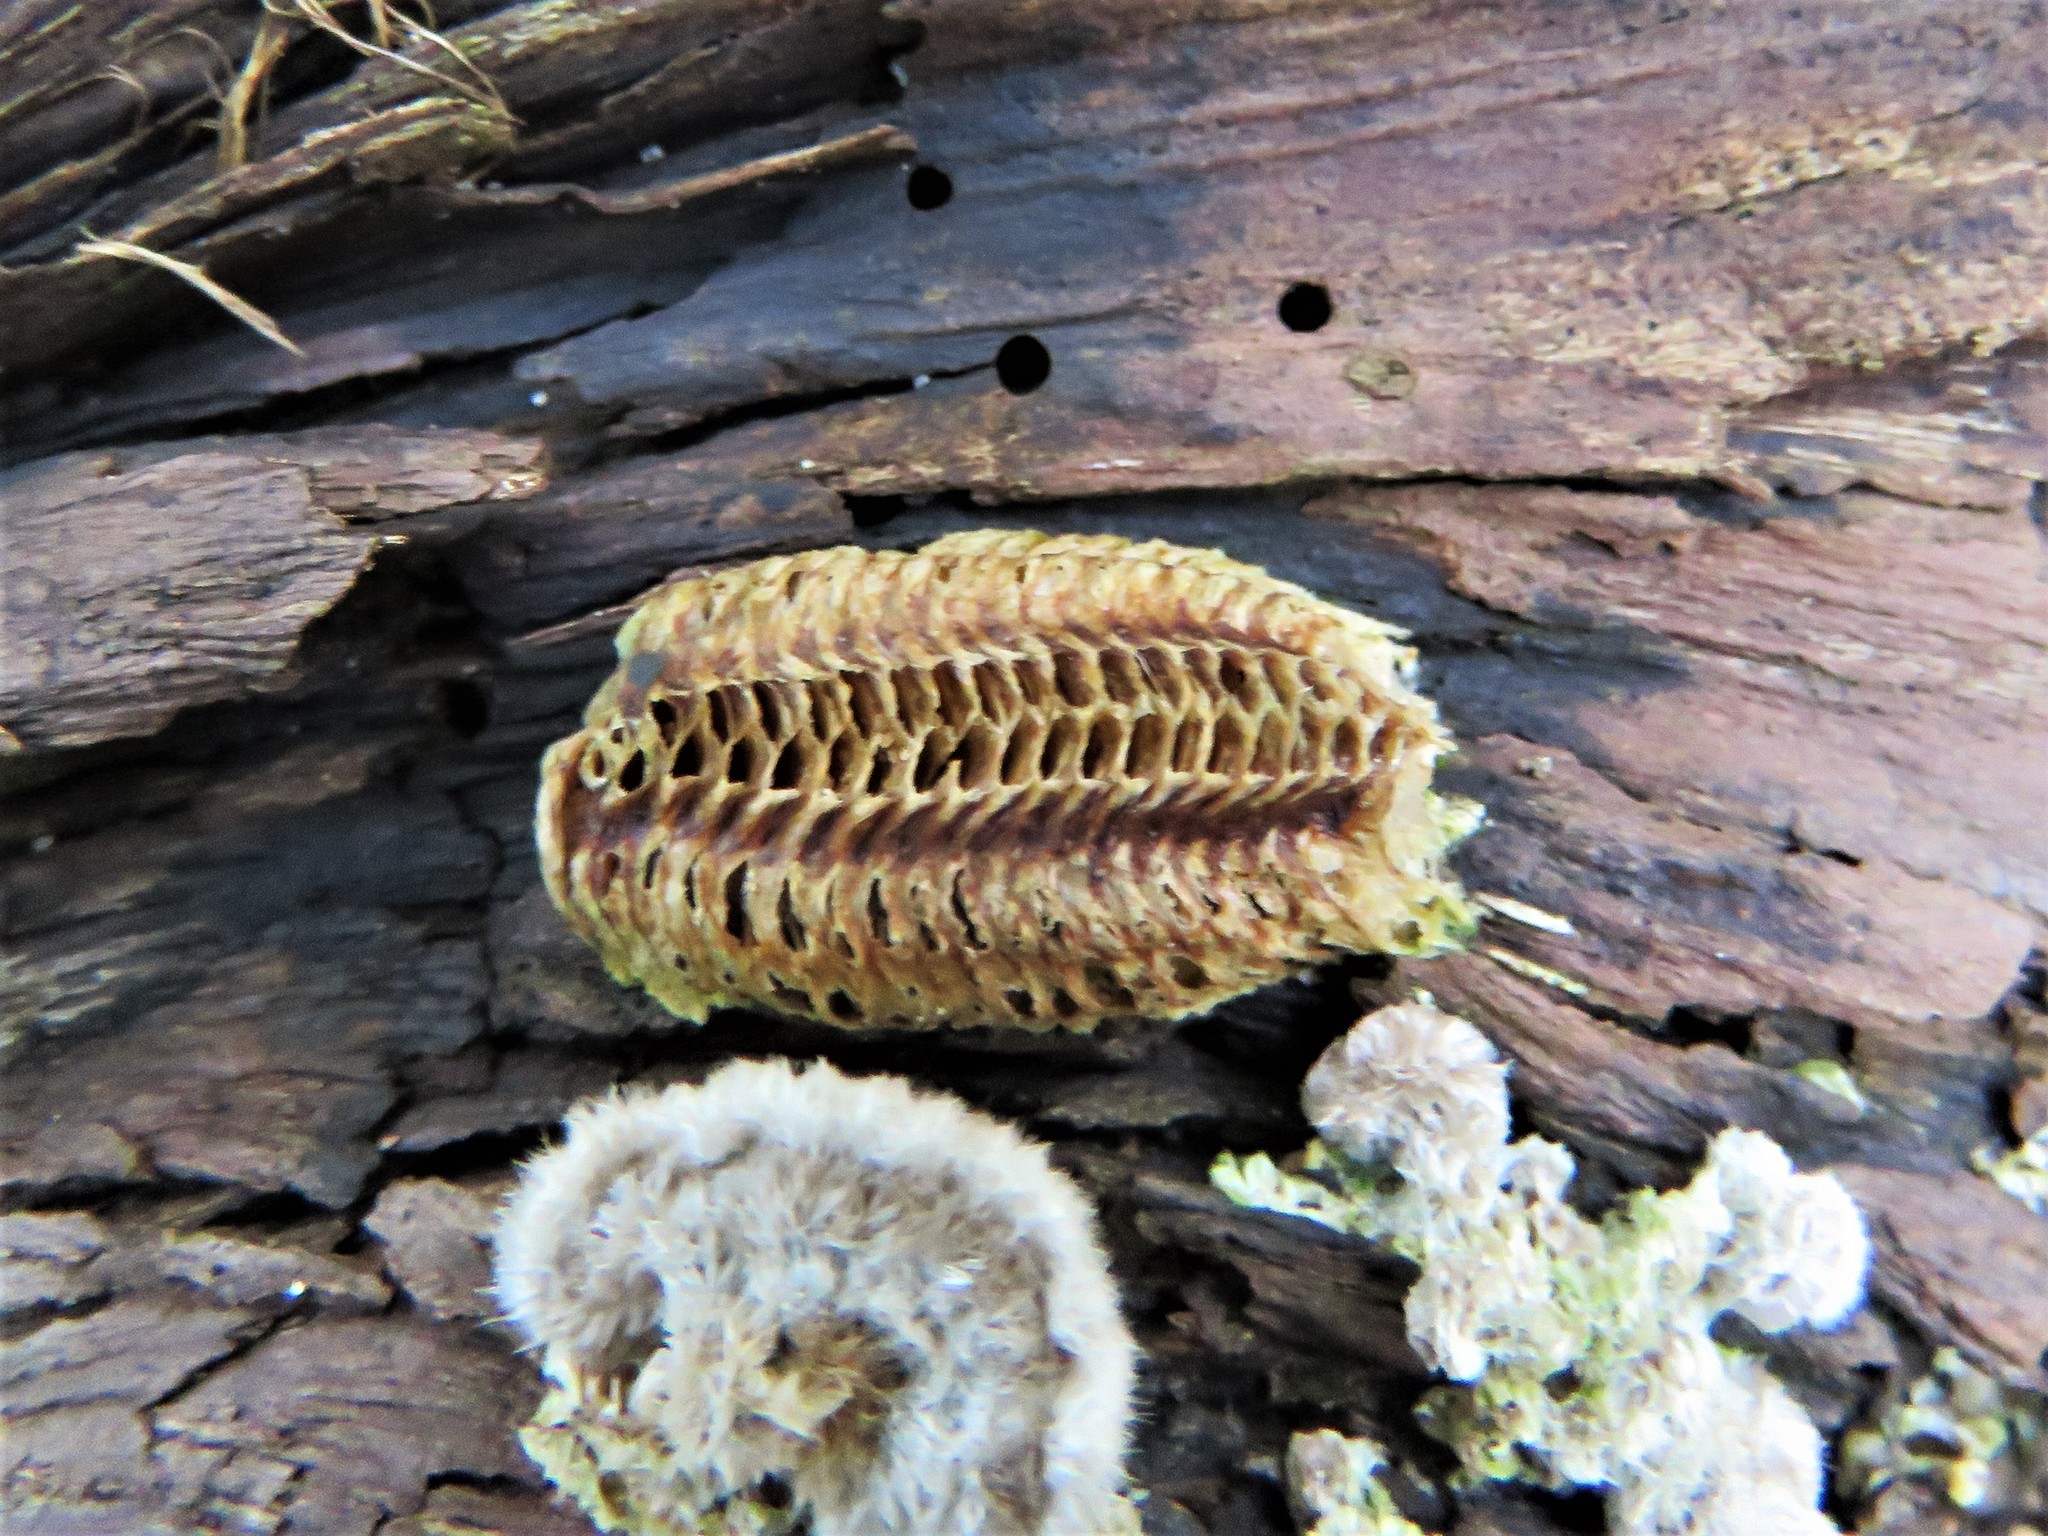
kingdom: Animalia
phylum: Arthropoda
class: Insecta
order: Mantodea
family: Mantidae
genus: Stagmomantis
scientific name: Stagmomantis carolina
